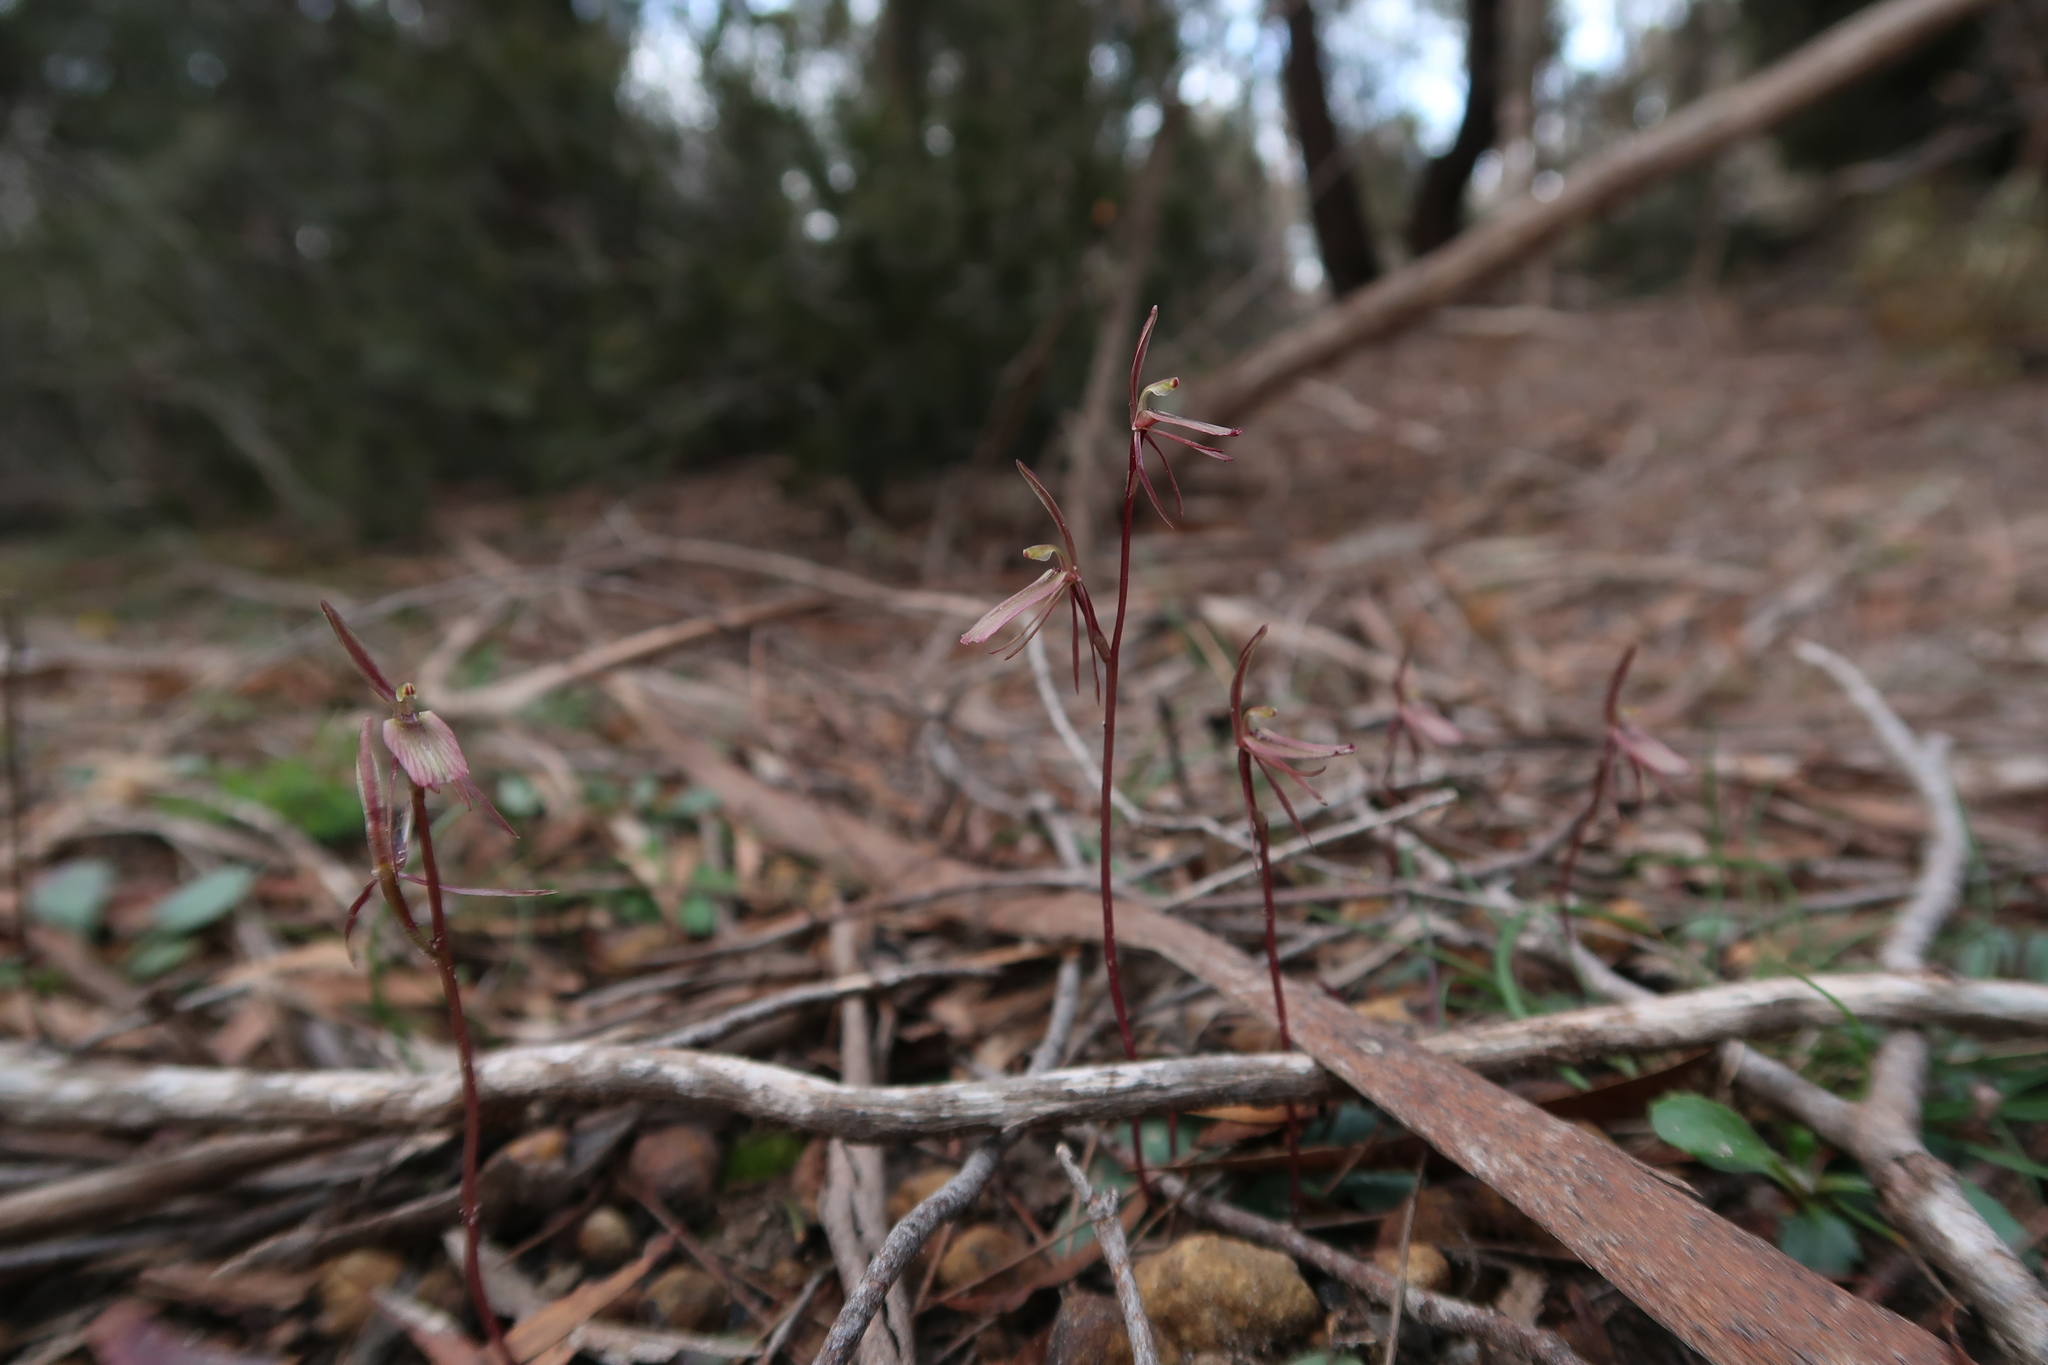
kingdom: Plantae
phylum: Tracheophyta
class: Liliopsida
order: Asparagales
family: Orchidaceae
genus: Cyrtostylis
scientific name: Cyrtostylis reniformis
